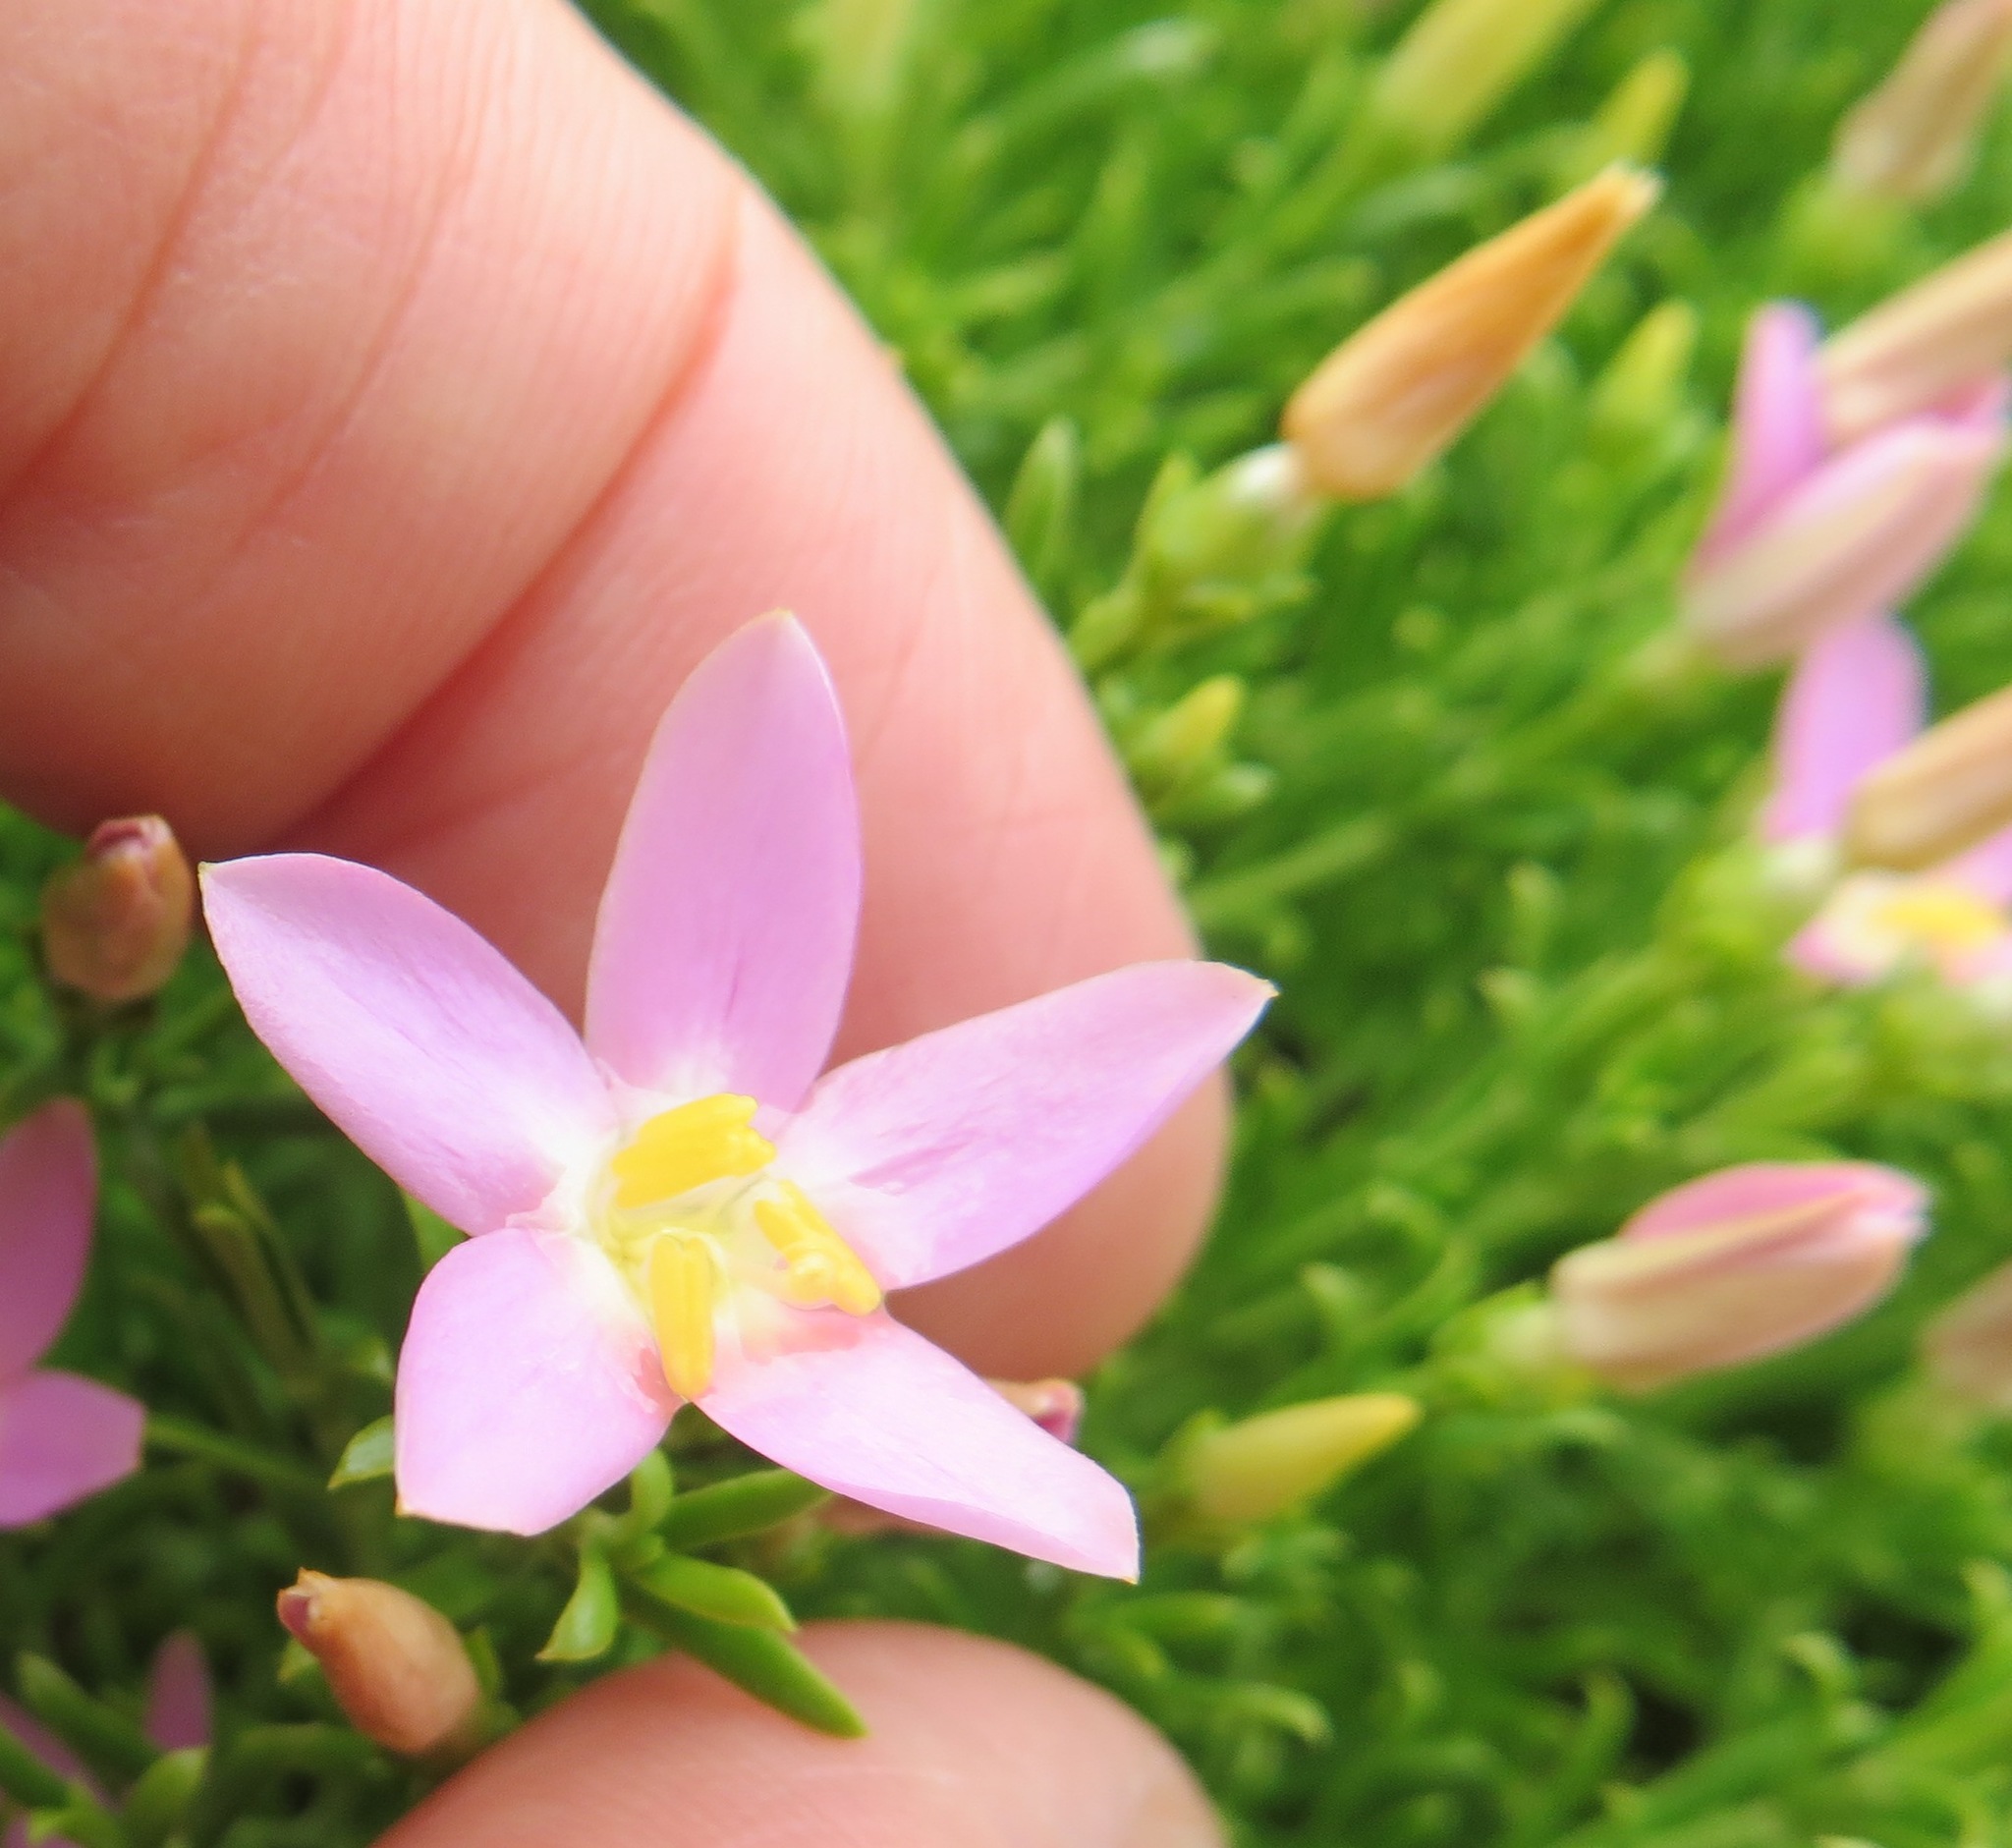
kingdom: Plantae
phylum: Tracheophyta
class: Magnoliopsida
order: Gentianales
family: Gentianaceae
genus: Chironia
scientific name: Chironia baccifera
